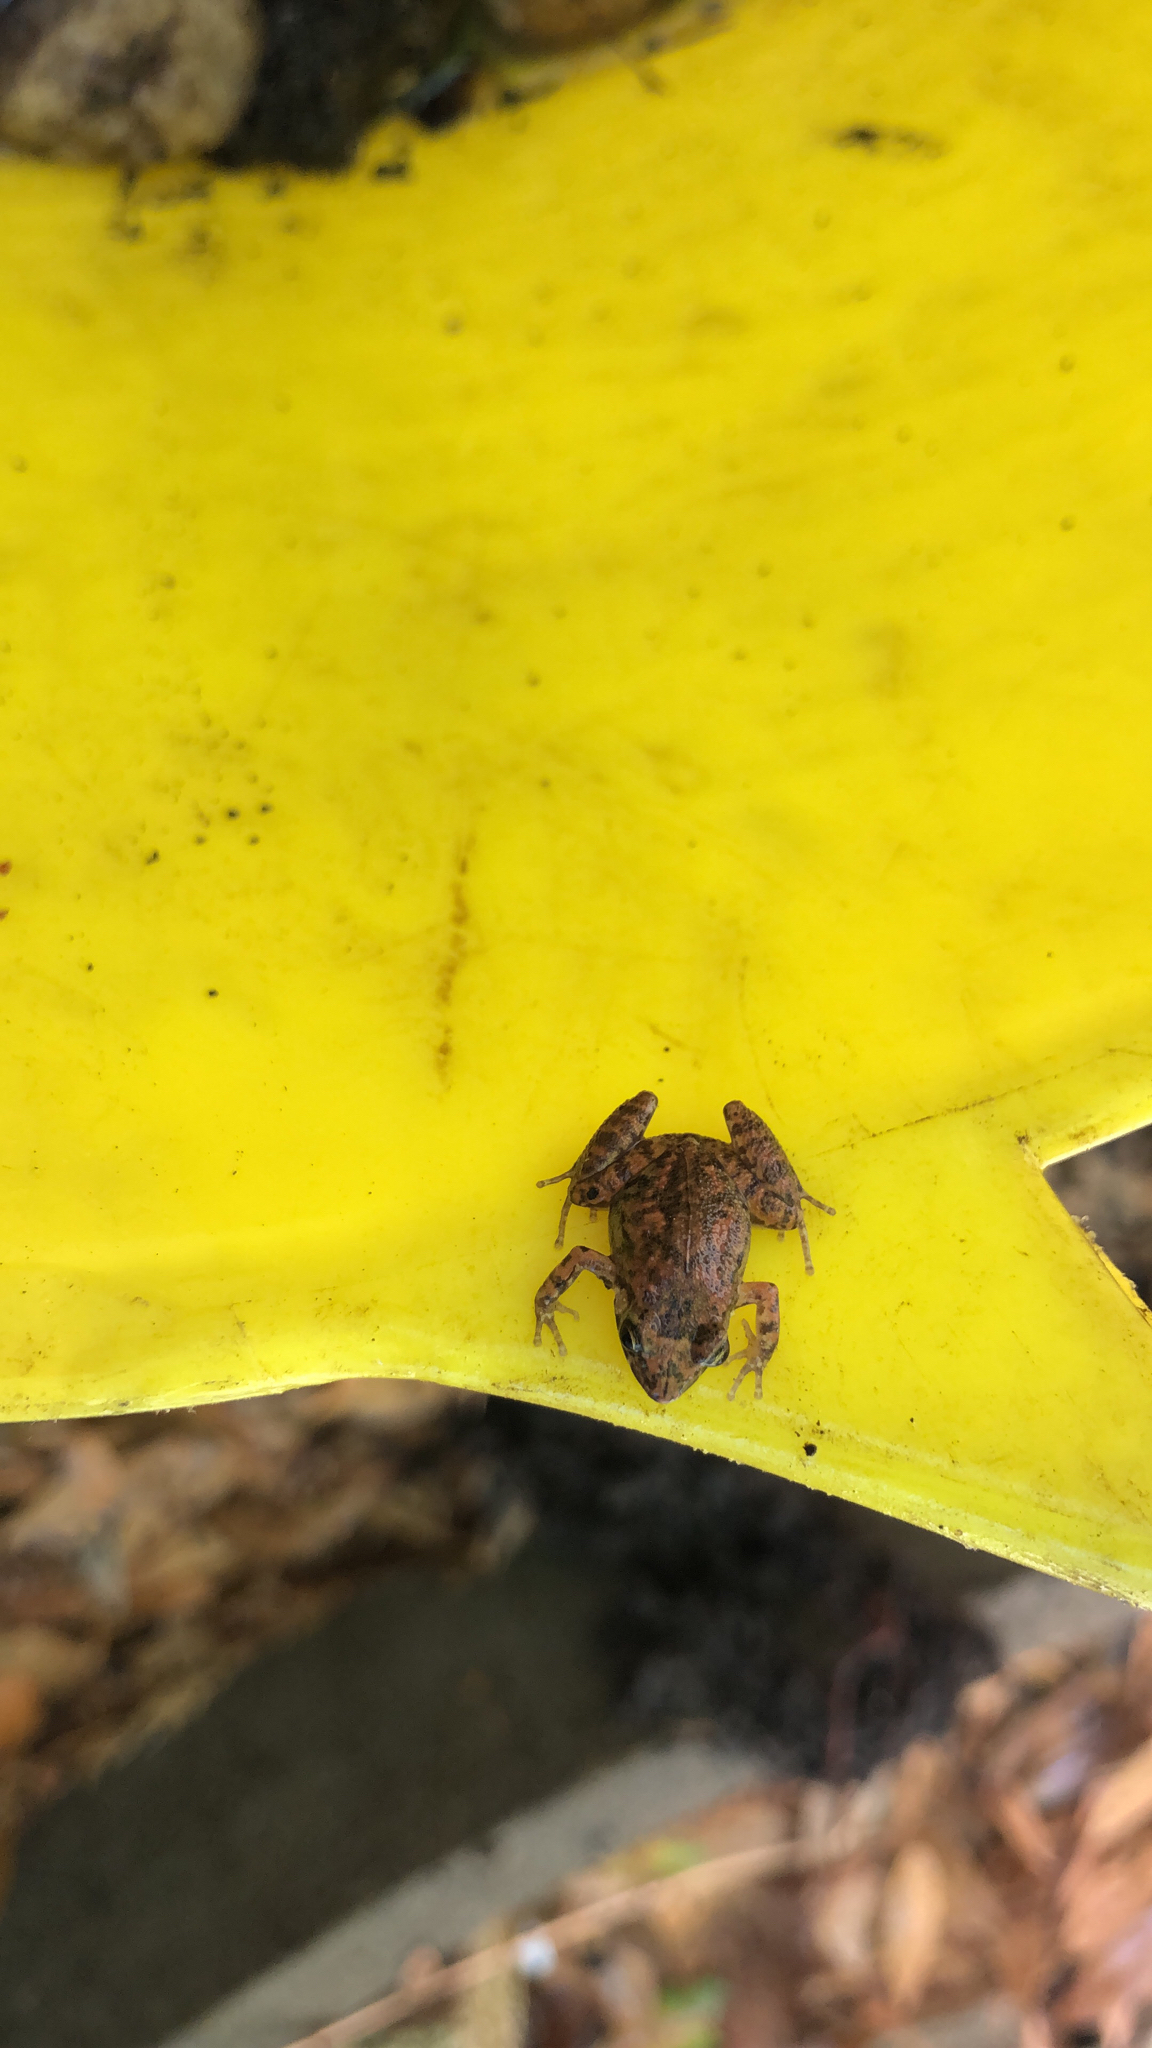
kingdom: Animalia
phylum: Chordata
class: Amphibia
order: Anura
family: Eleutherodactylidae
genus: Eleutherodactylus
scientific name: Eleutherodactylus planirostris
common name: Greenhouse frog
